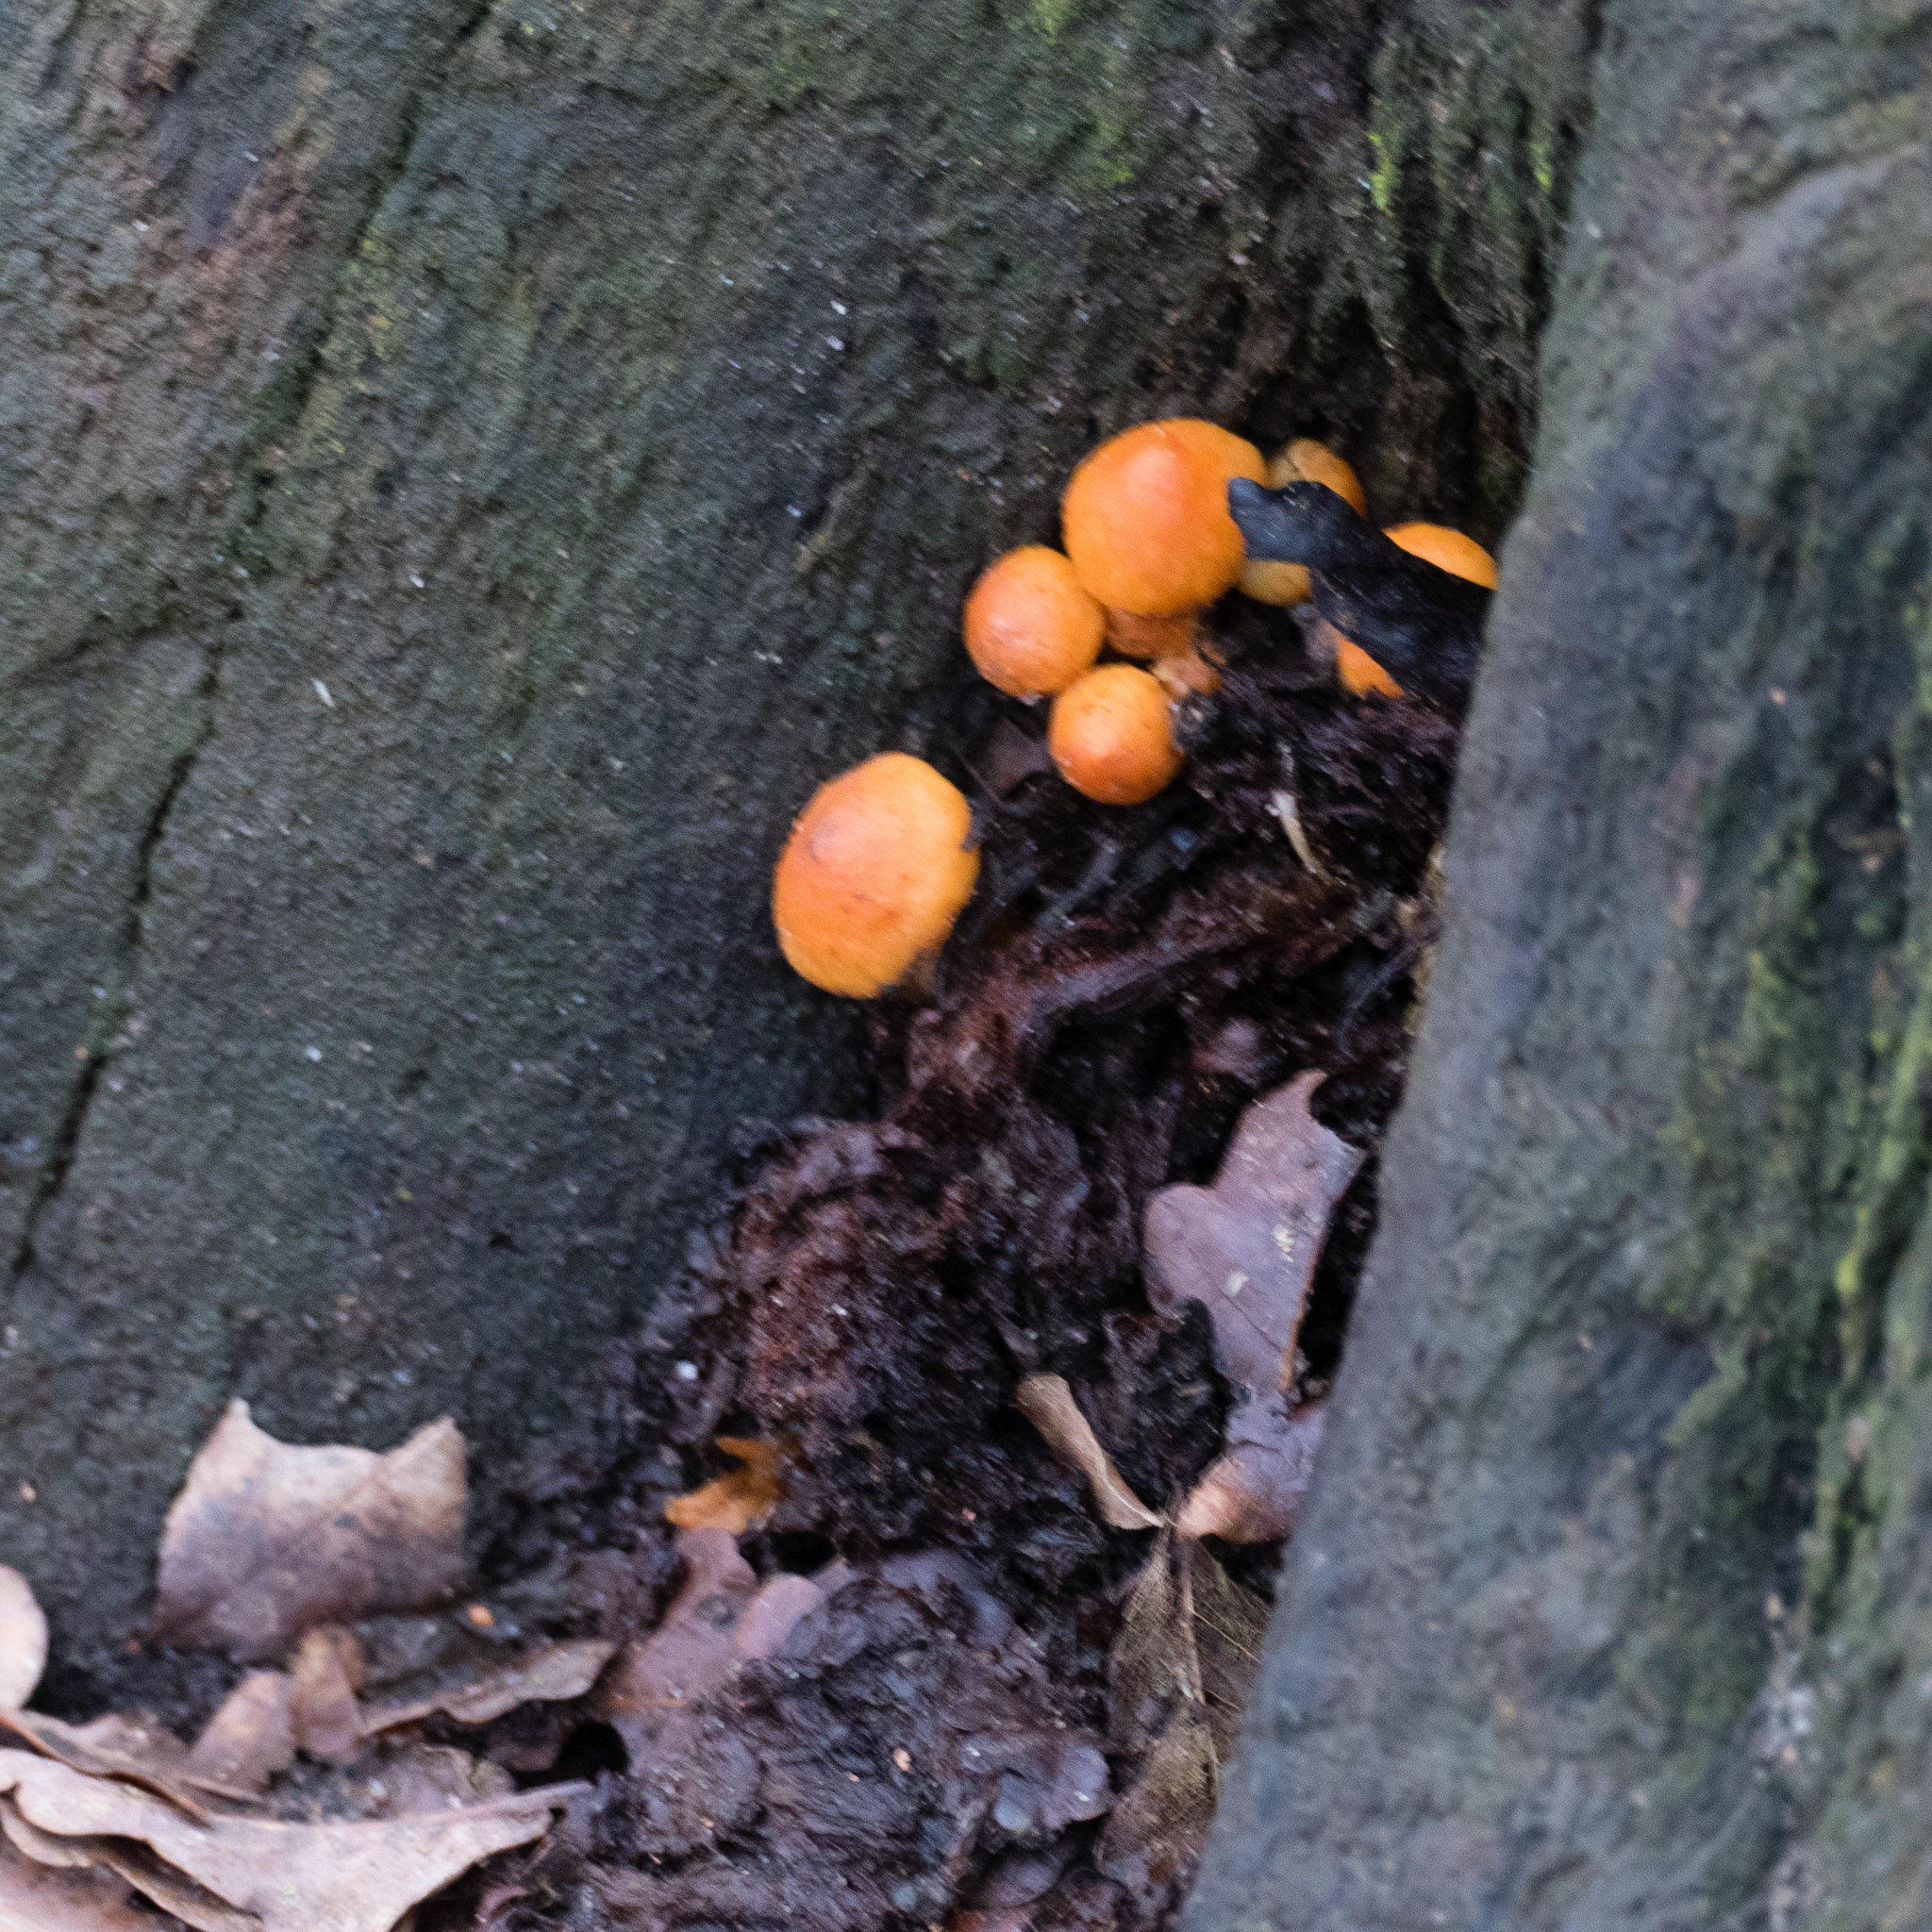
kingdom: Fungi
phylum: Basidiomycota
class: Agaricomycetes
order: Agaricales
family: Physalacriaceae
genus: Flammulina
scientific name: Flammulina
